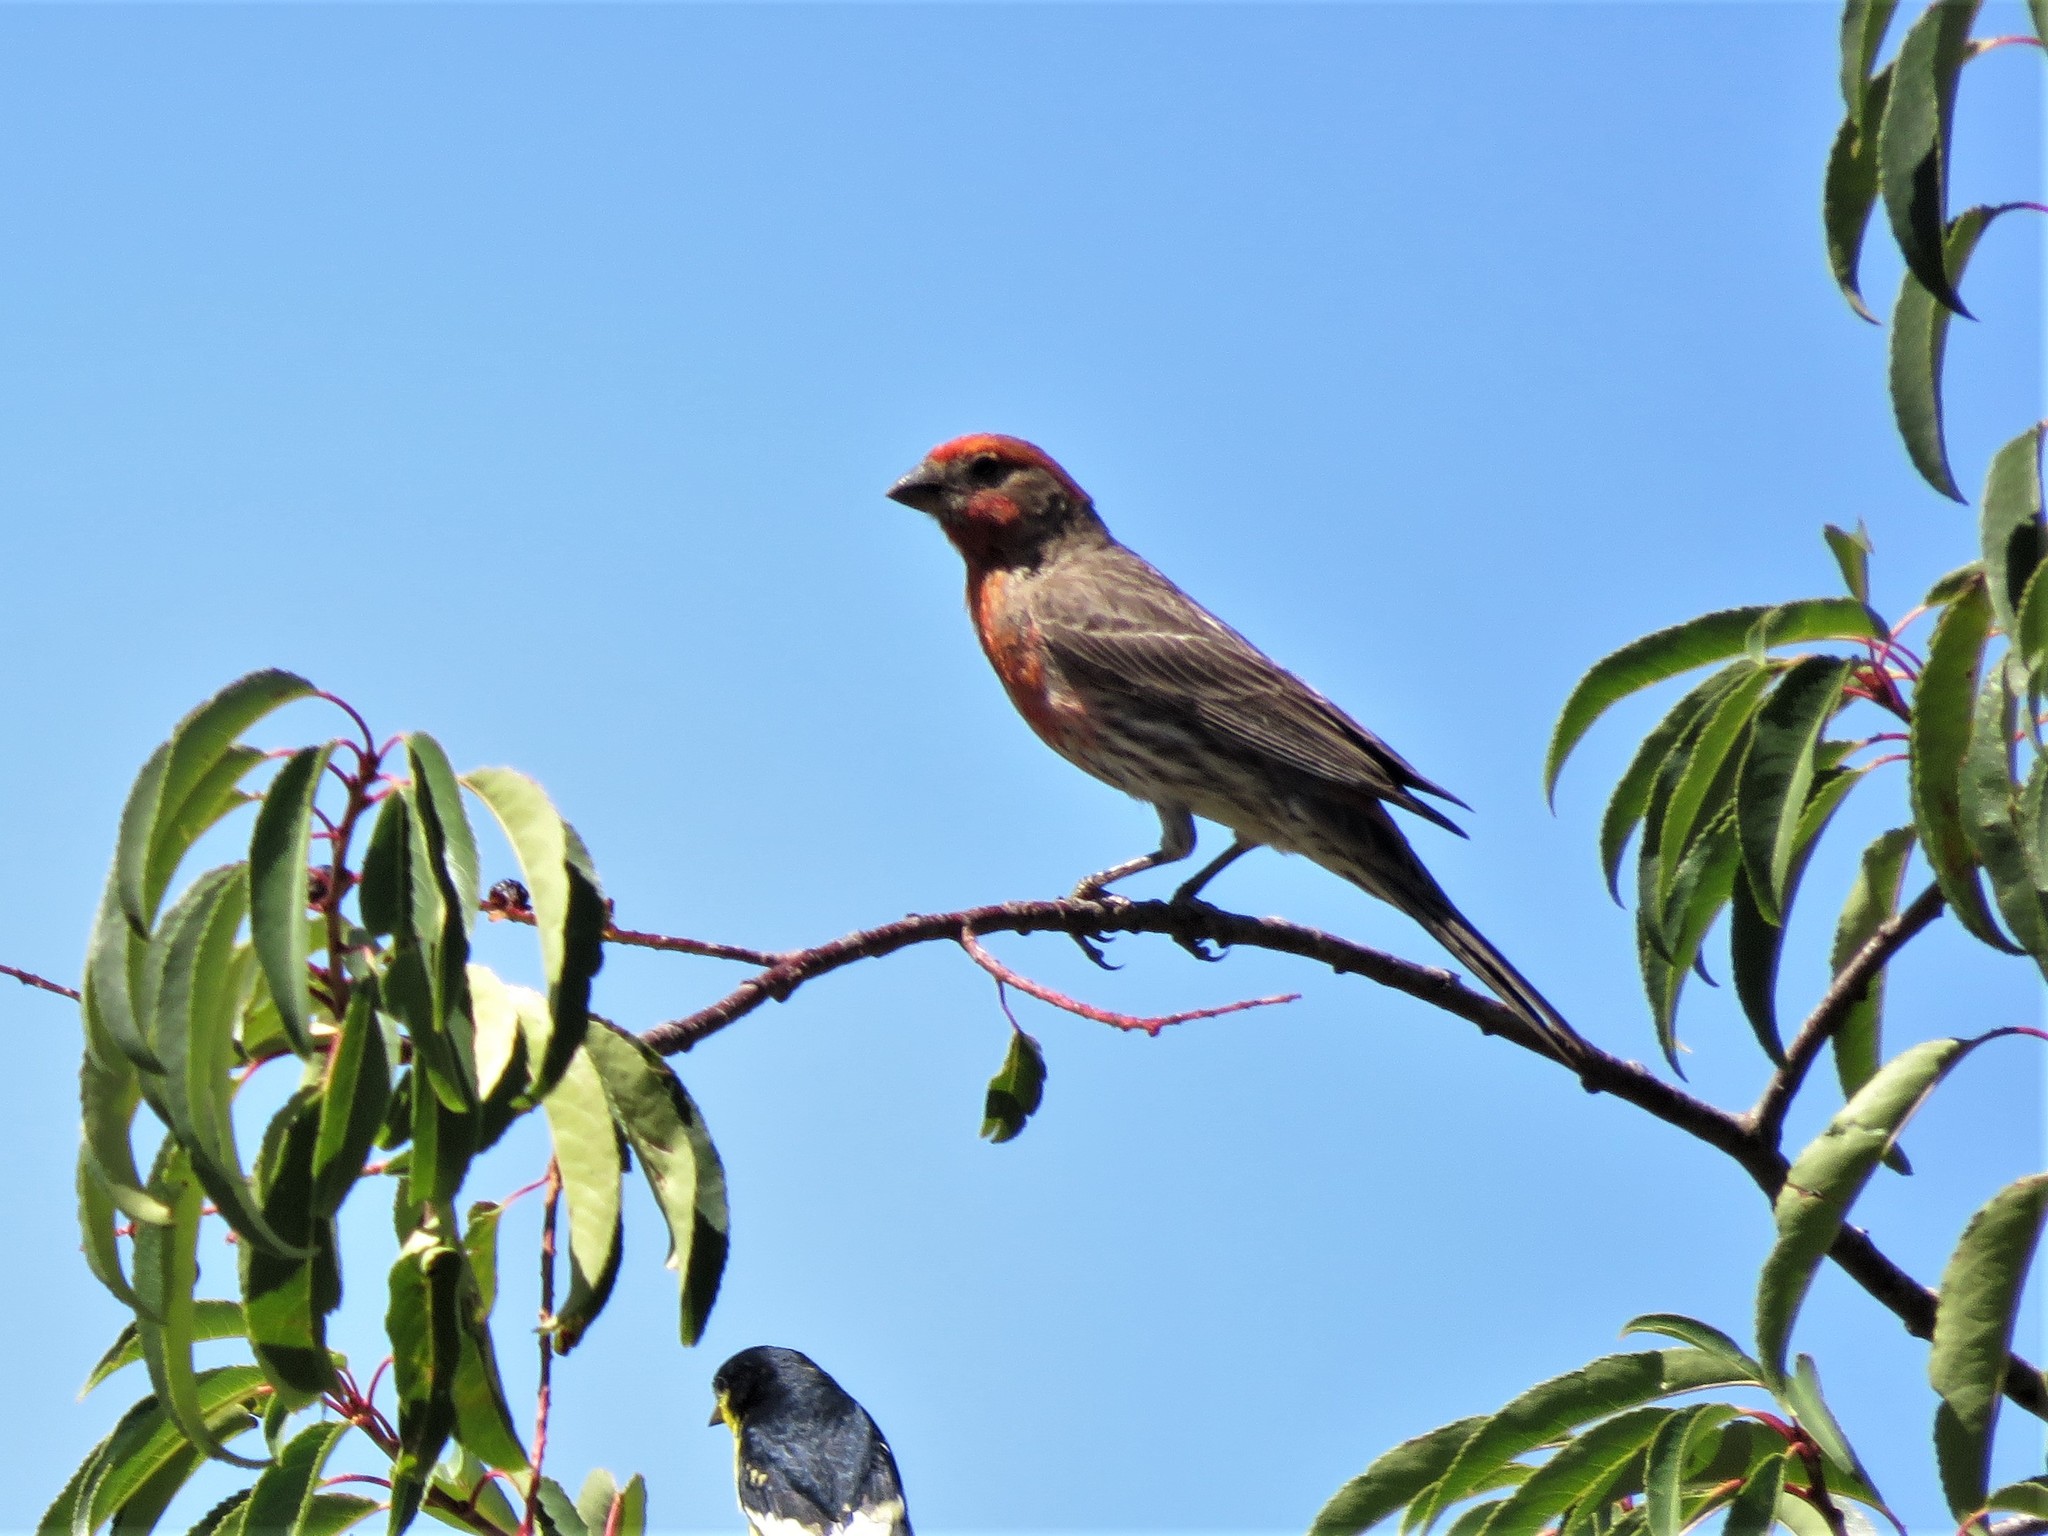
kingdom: Animalia
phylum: Chordata
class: Aves
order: Passeriformes
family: Fringillidae
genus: Haemorhous
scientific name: Haemorhous mexicanus
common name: House finch
